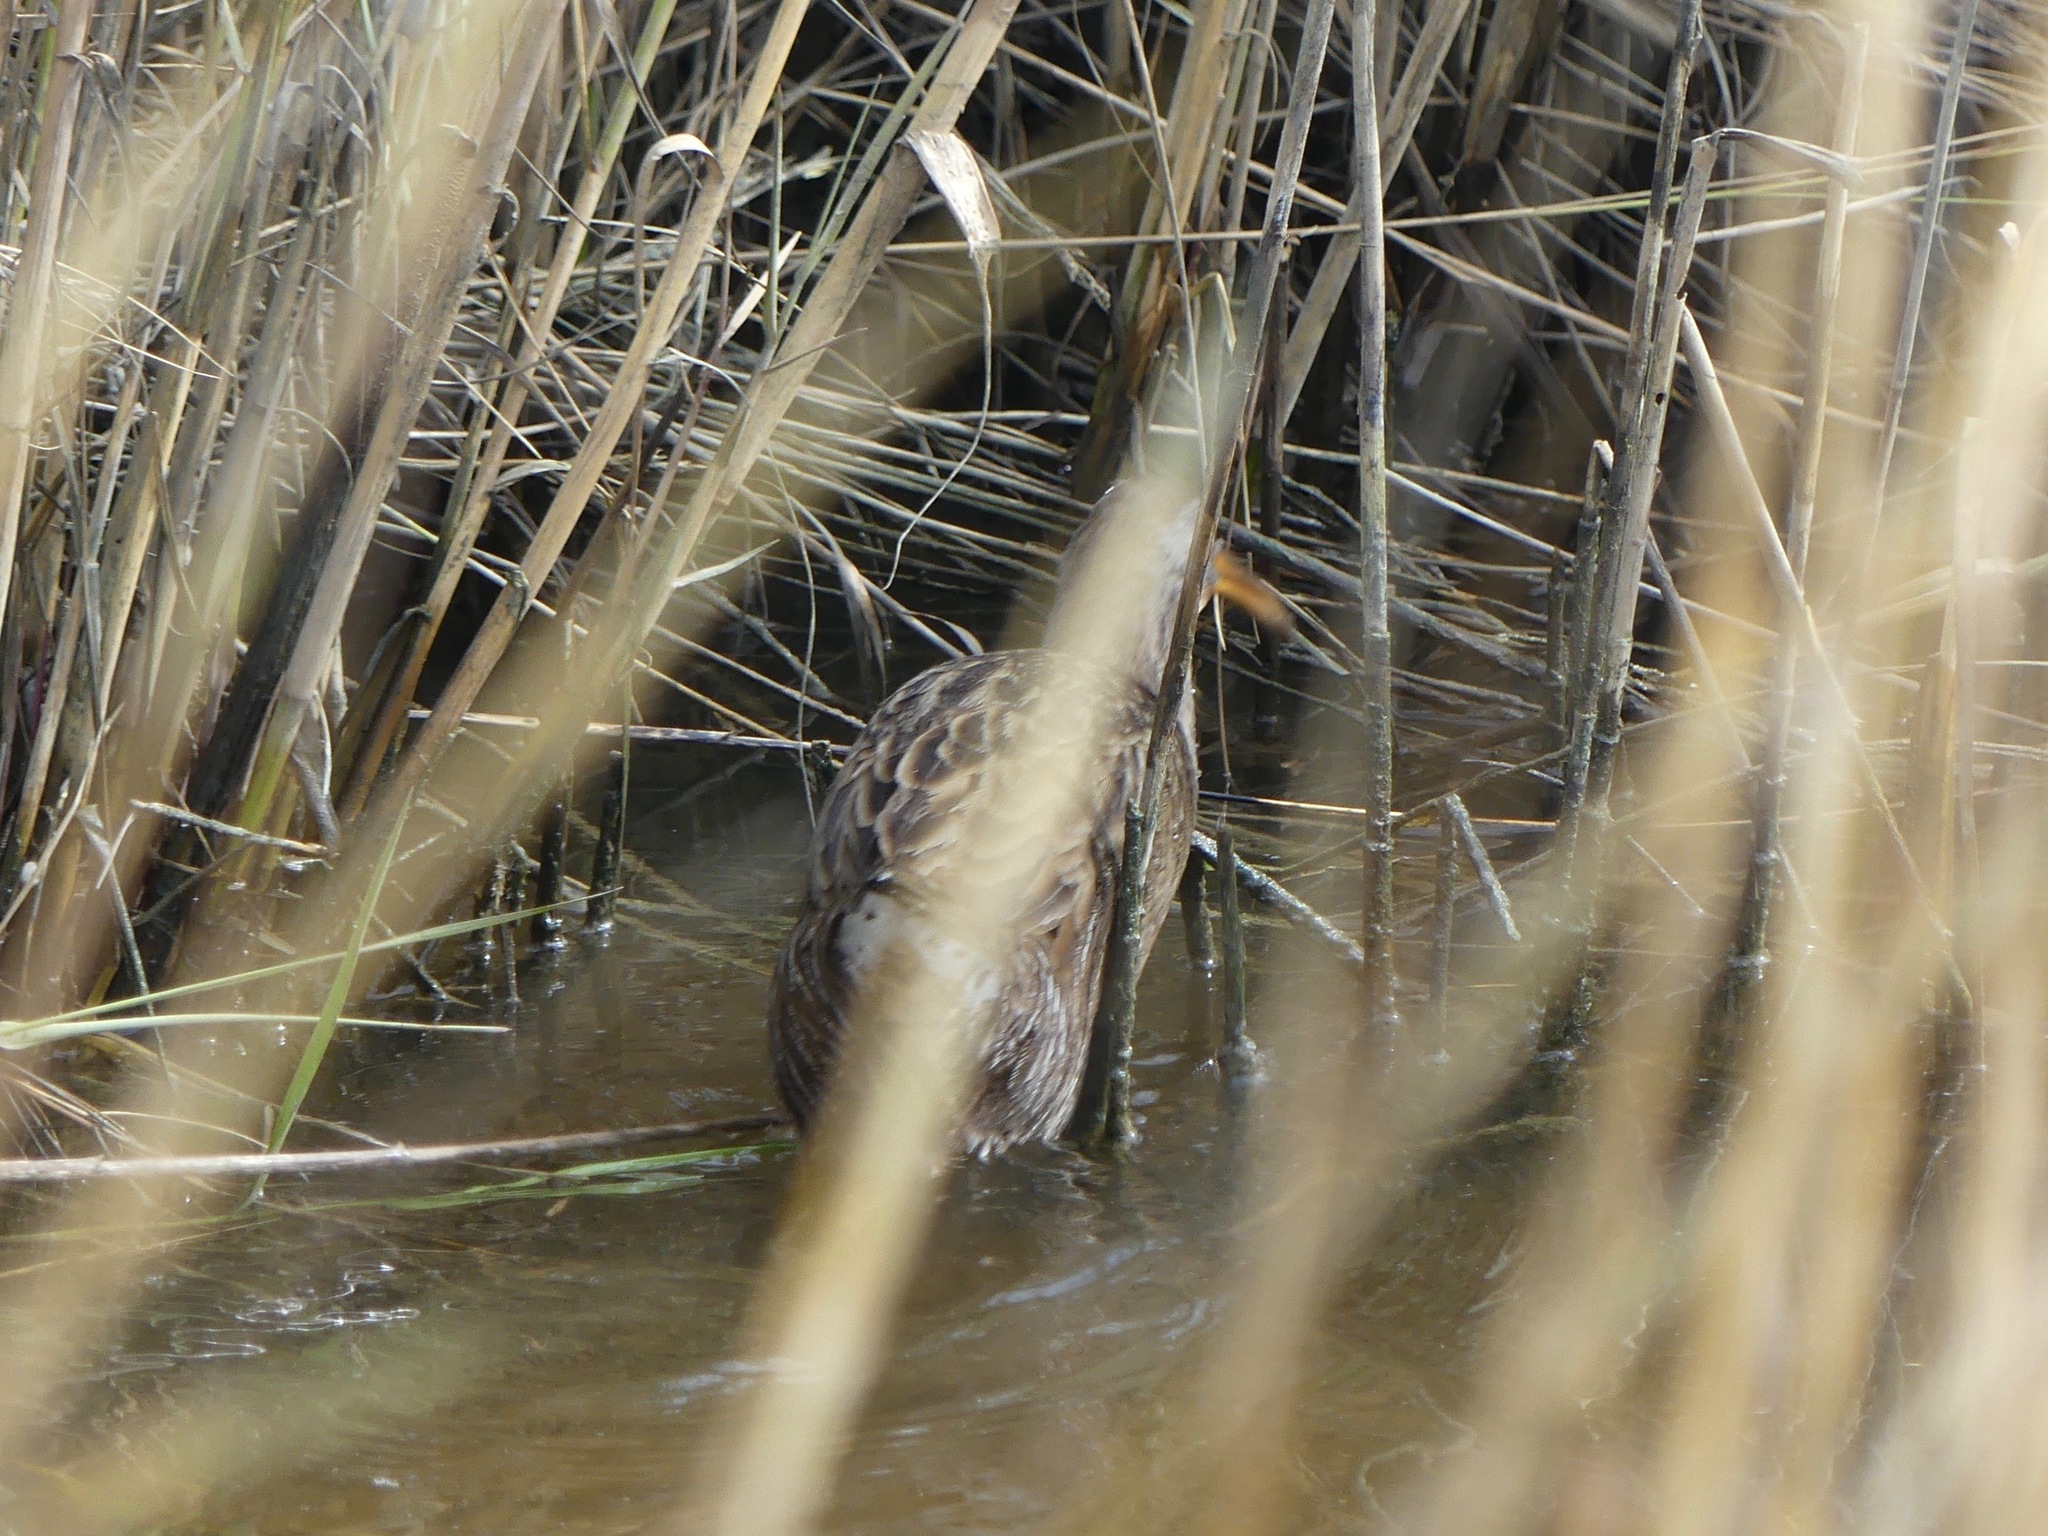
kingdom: Animalia
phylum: Chordata
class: Aves
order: Gruiformes
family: Rallidae
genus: Rallus
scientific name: Rallus crepitans
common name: Clapper rail
